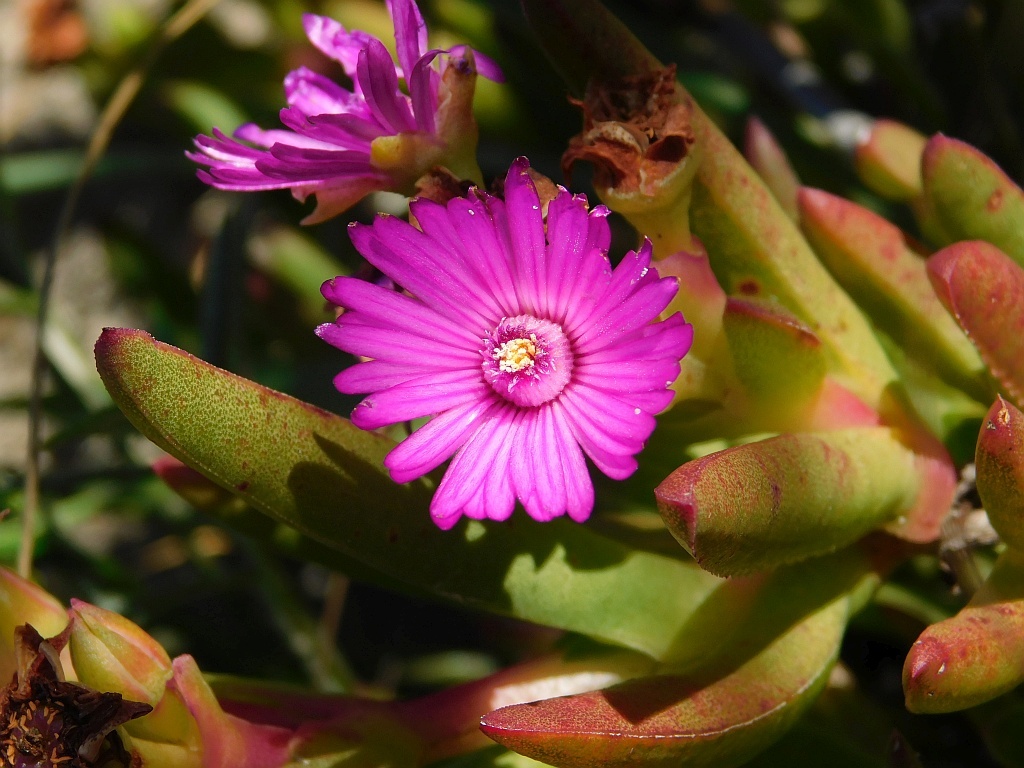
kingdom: Plantae
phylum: Tracheophyta
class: Magnoliopsida
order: Caryophyllales
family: Aizoaceae
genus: Ruschia
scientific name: Ruschia schollii
